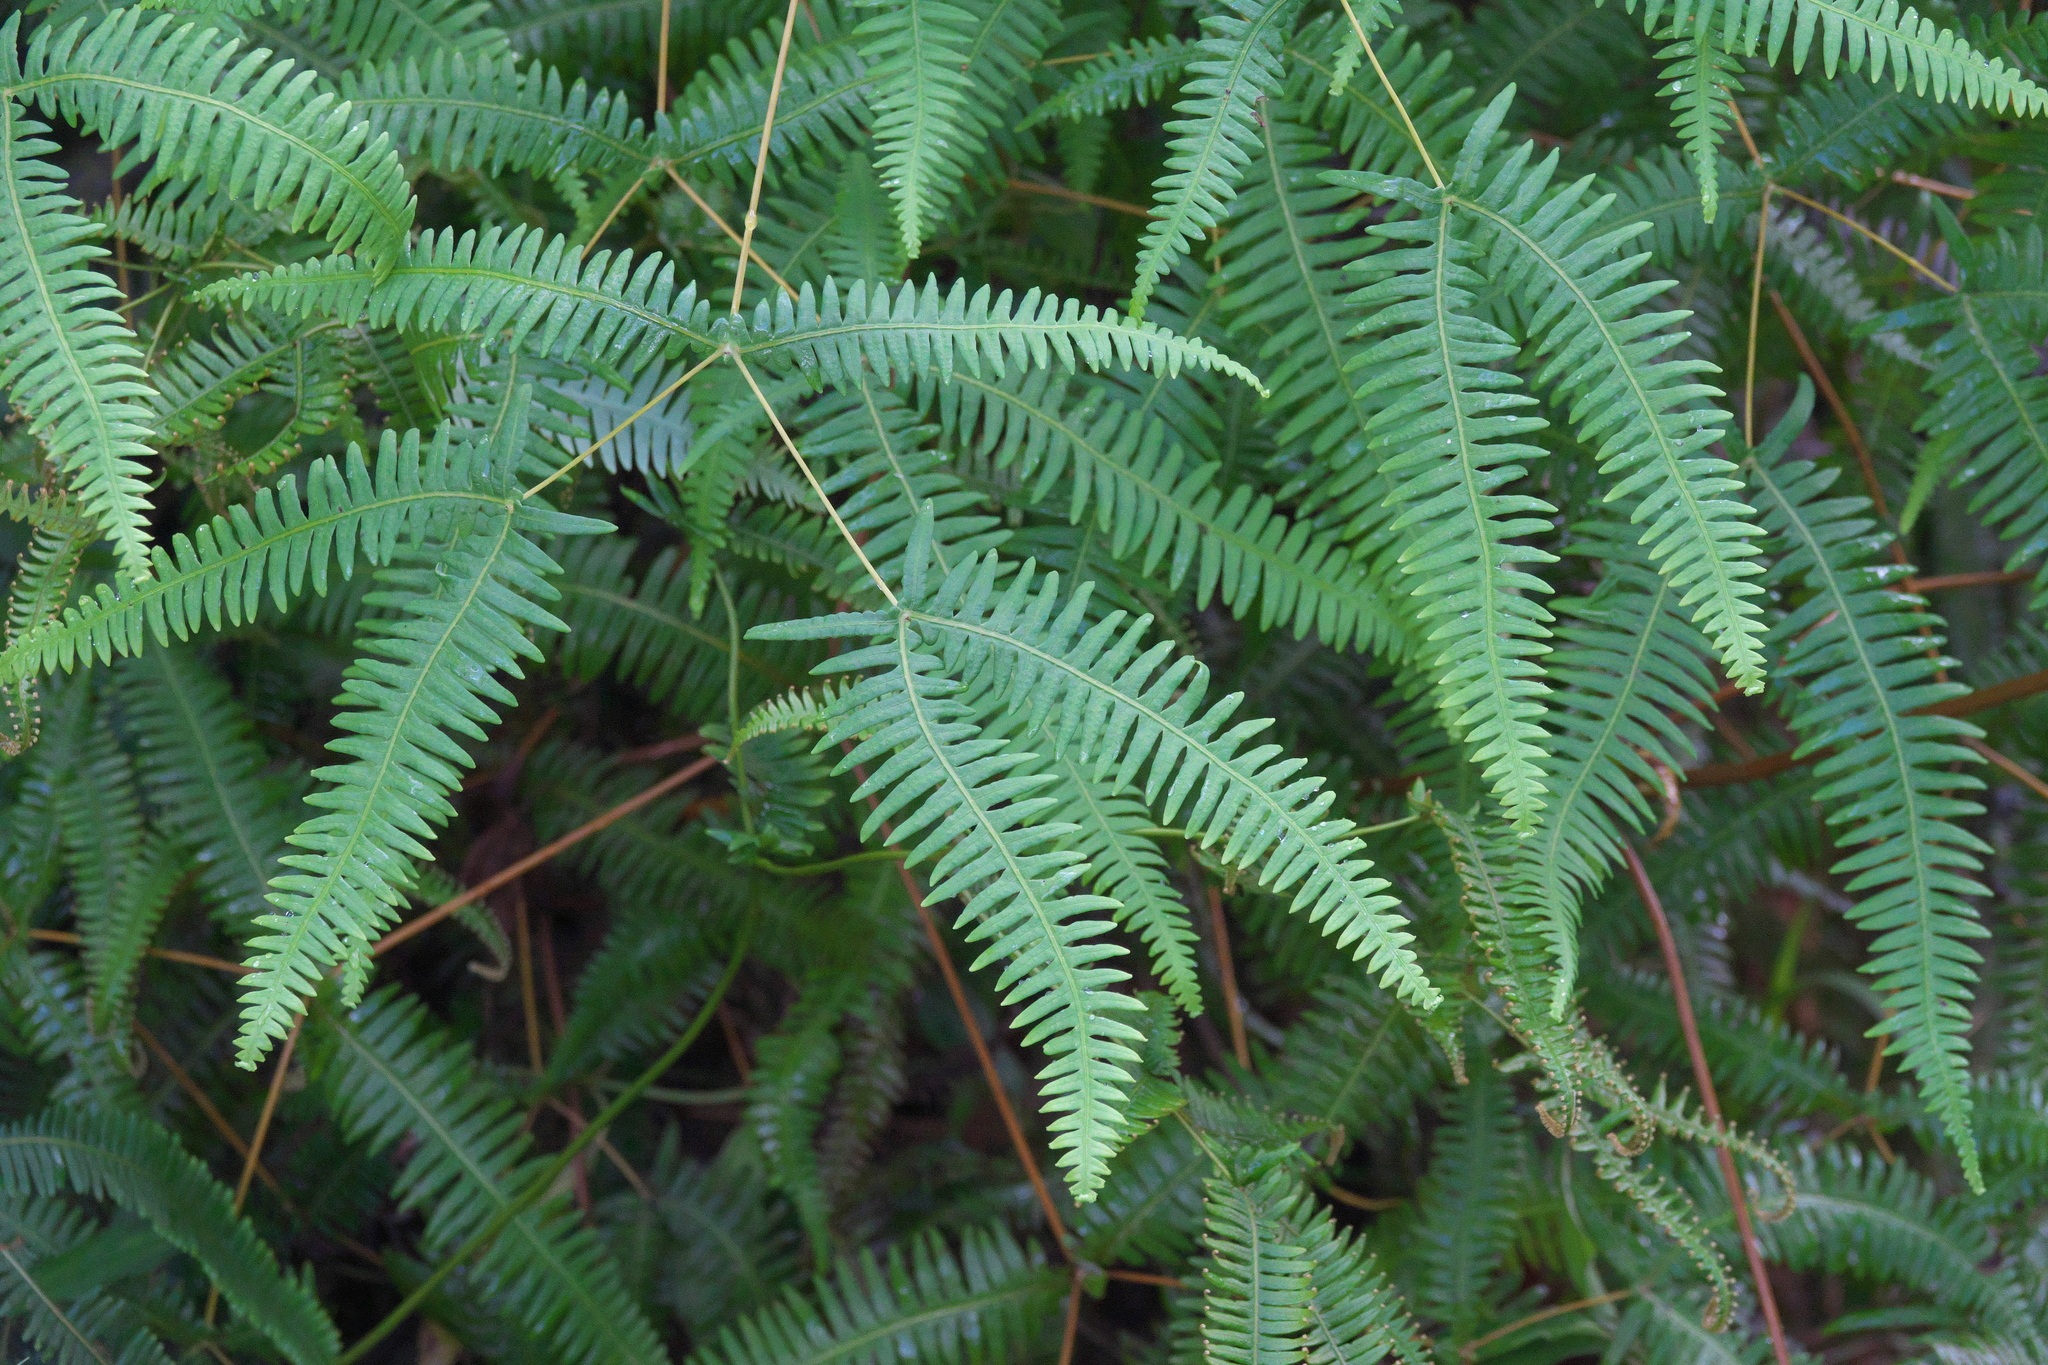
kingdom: Plantae
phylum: Tracheophyta
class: Polypodiopsida
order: Gleicheniales
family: Gleicheniaceae
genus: Dicranopteris
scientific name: Dicranopteris linearis
